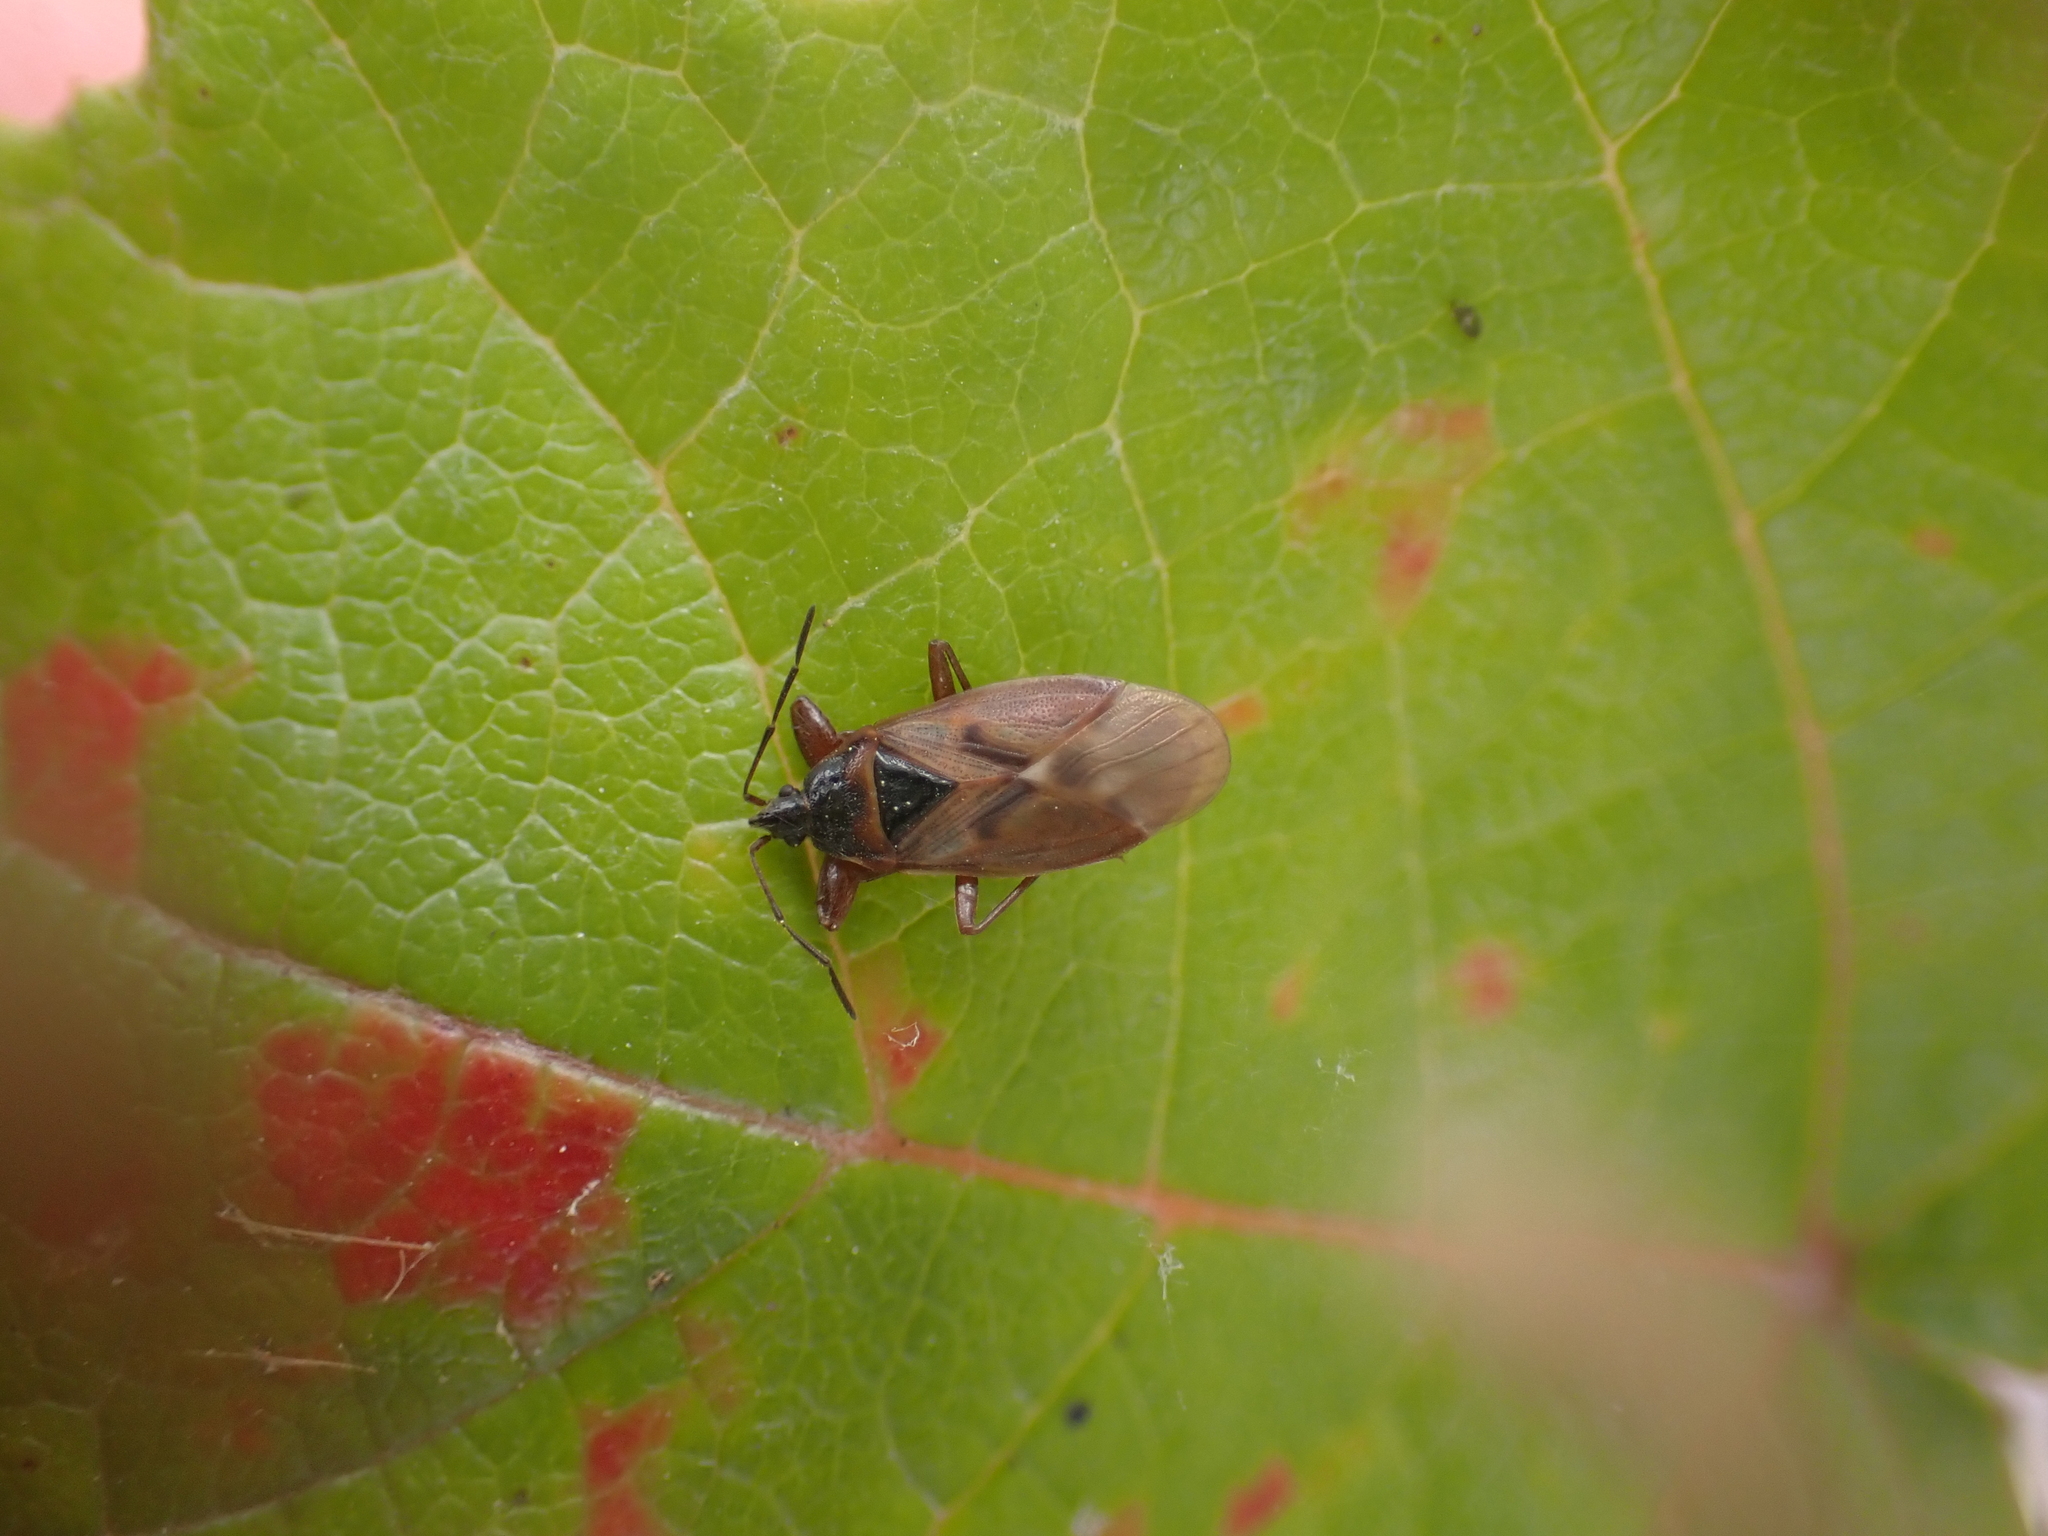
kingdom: Animalia
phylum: Arthropoda
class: Insecta
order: Hemiptera
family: Rhyparochromidae
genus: Gastrodes
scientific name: Gastrodes abietum
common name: Spruce cone bug
